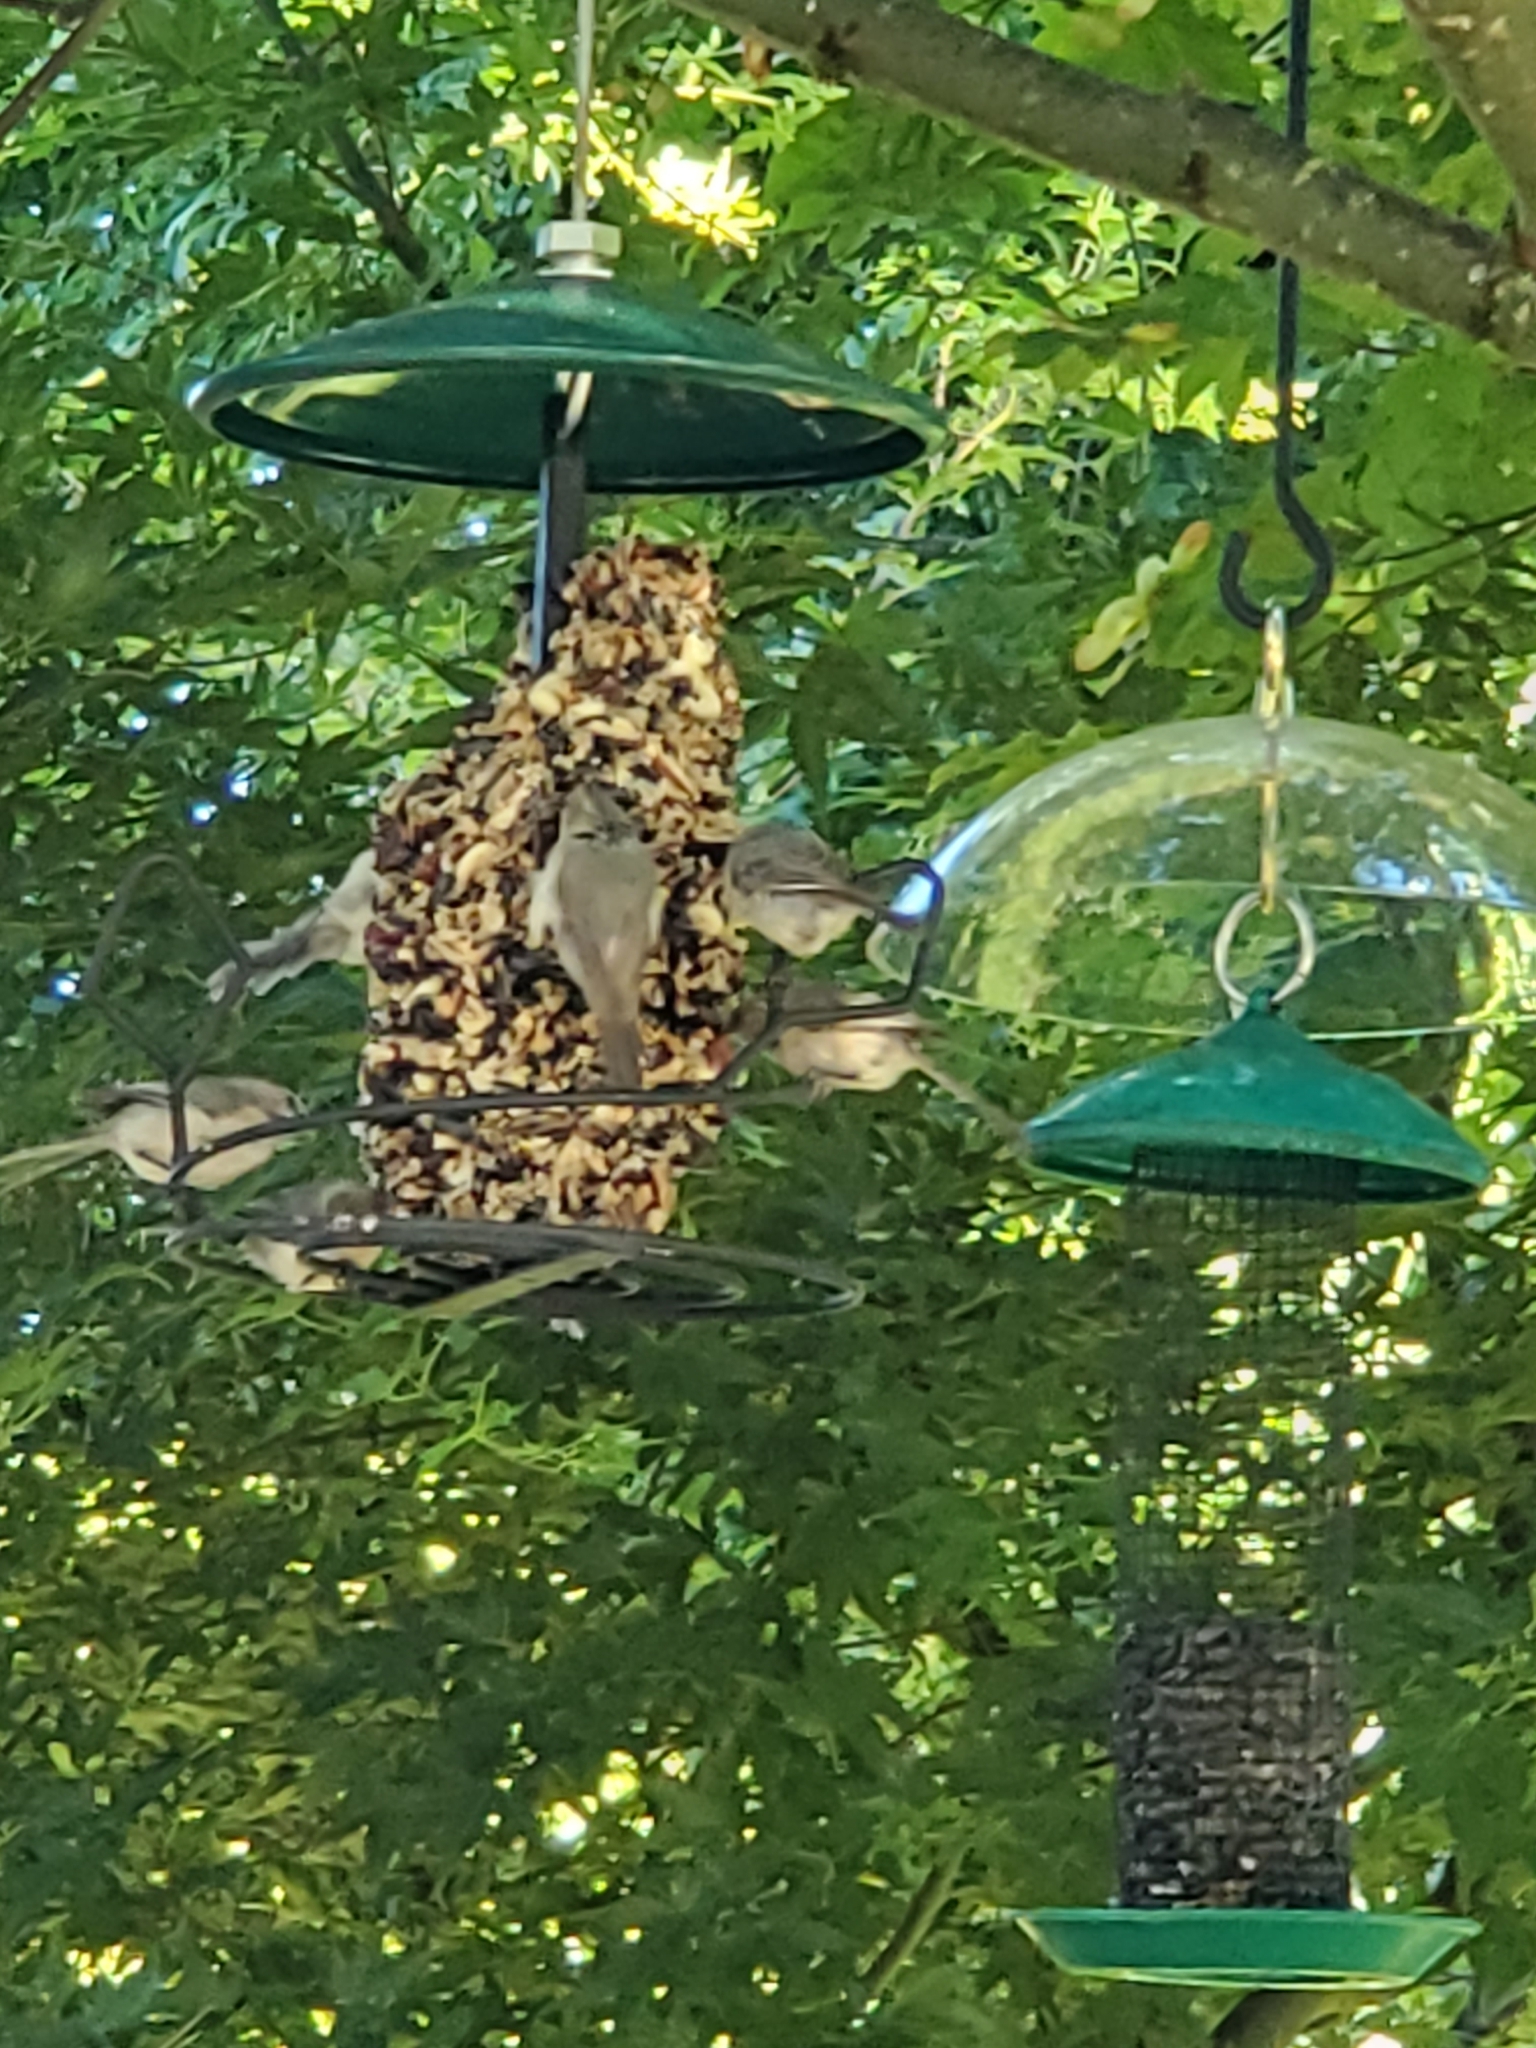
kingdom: Animalia
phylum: Chordata
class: Aves
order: Passeriformes
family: Aegithalidae
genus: Psaltriparus
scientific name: Psaltriparus minimus
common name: American bushtit
